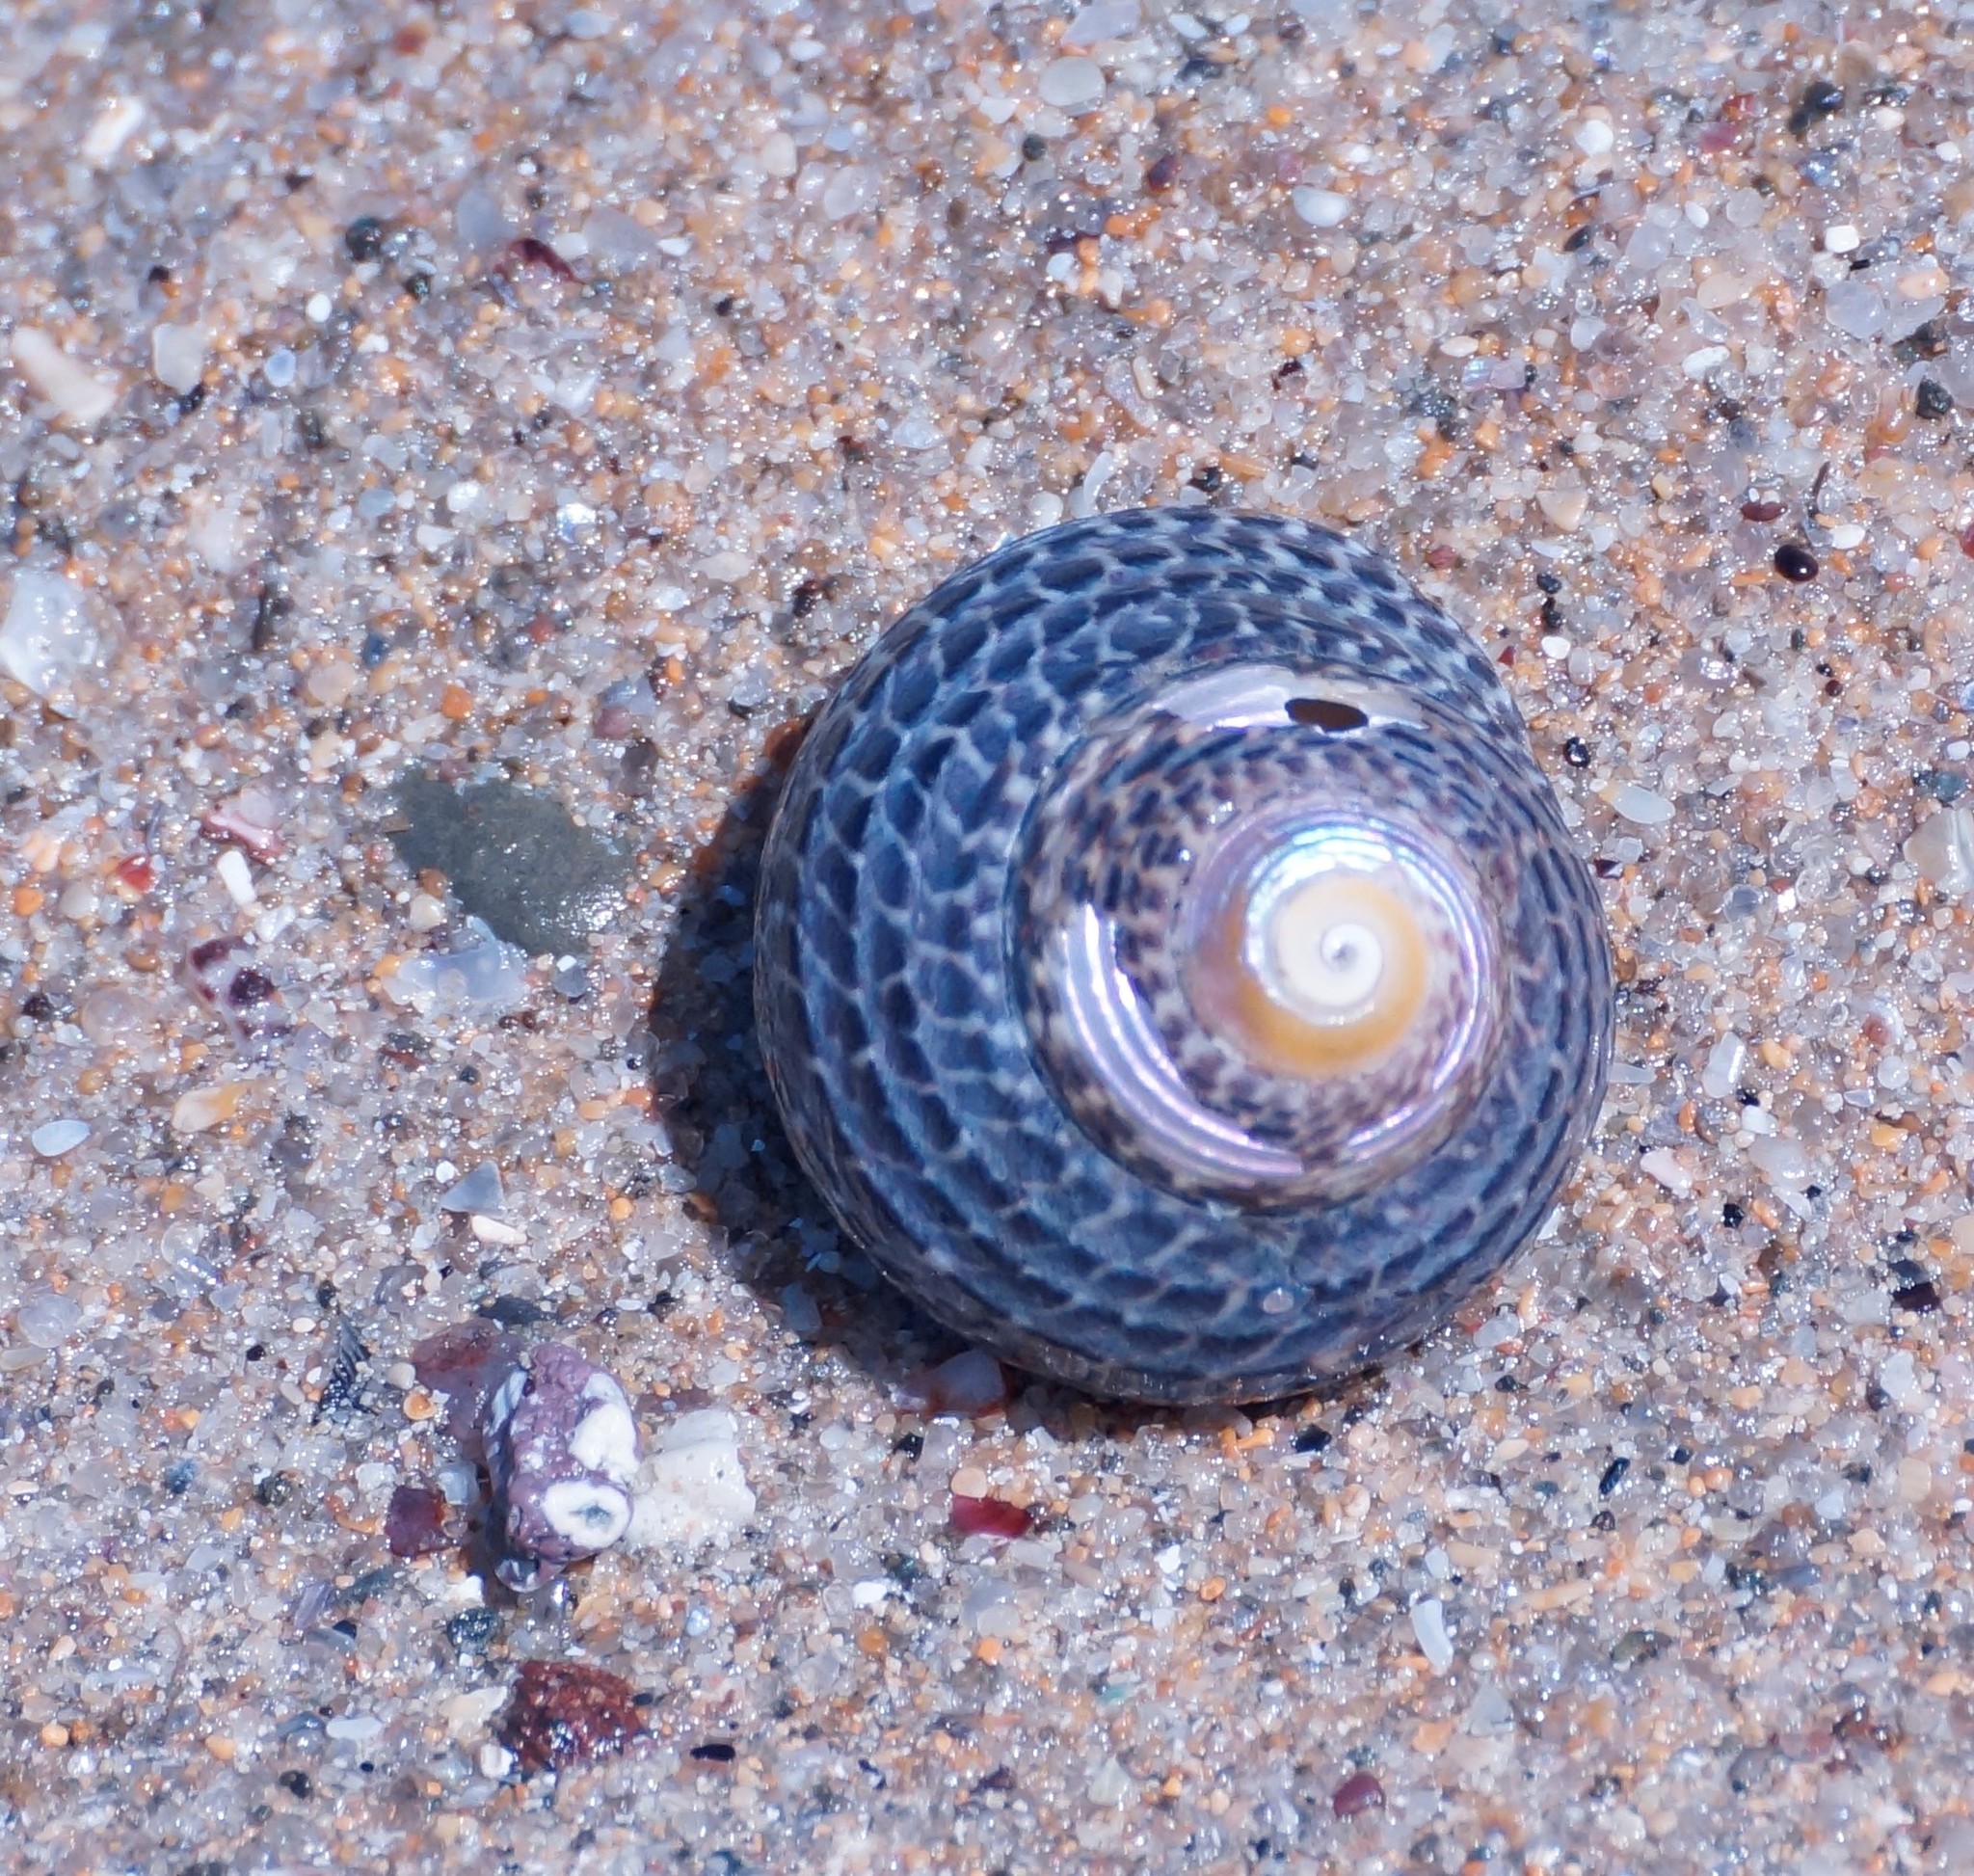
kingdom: Animalia
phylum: Mollusca
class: Gastropoda
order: Trochida
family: Trochidae
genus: Chlorodiloma
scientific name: Chlorodiloma adelaidae
